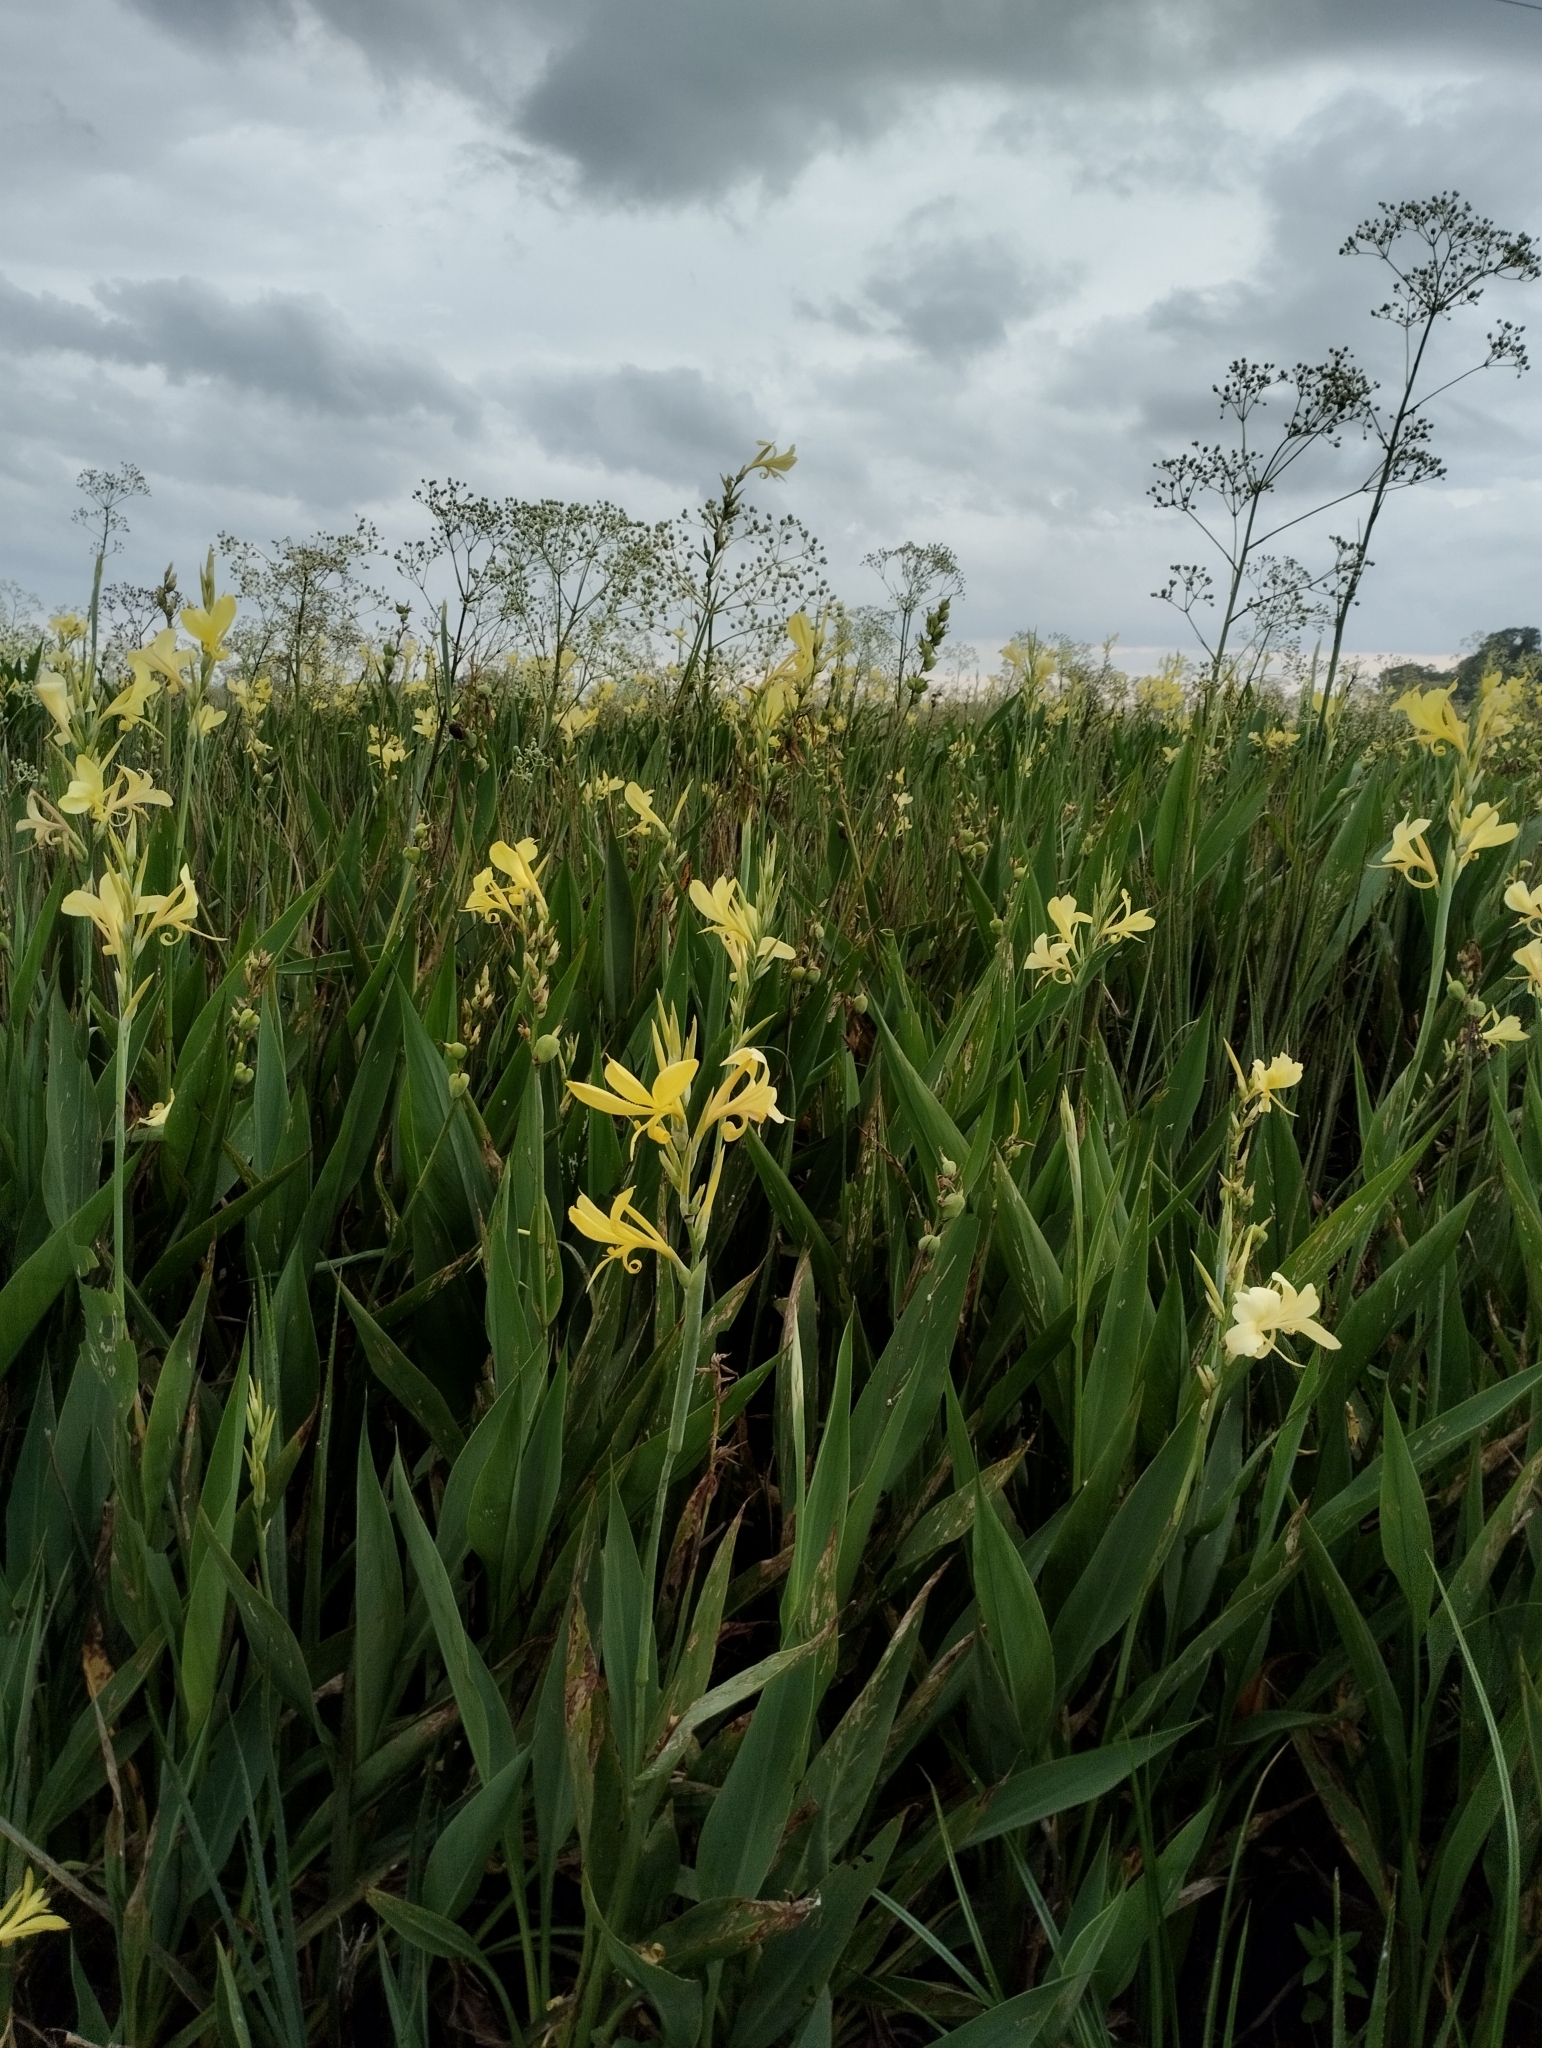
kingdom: Plantae
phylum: Tracheophyta
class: Liliopsida
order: Zingiberales
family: Cannaceae
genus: Canna
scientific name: Canna glauca
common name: Louisiana canna
